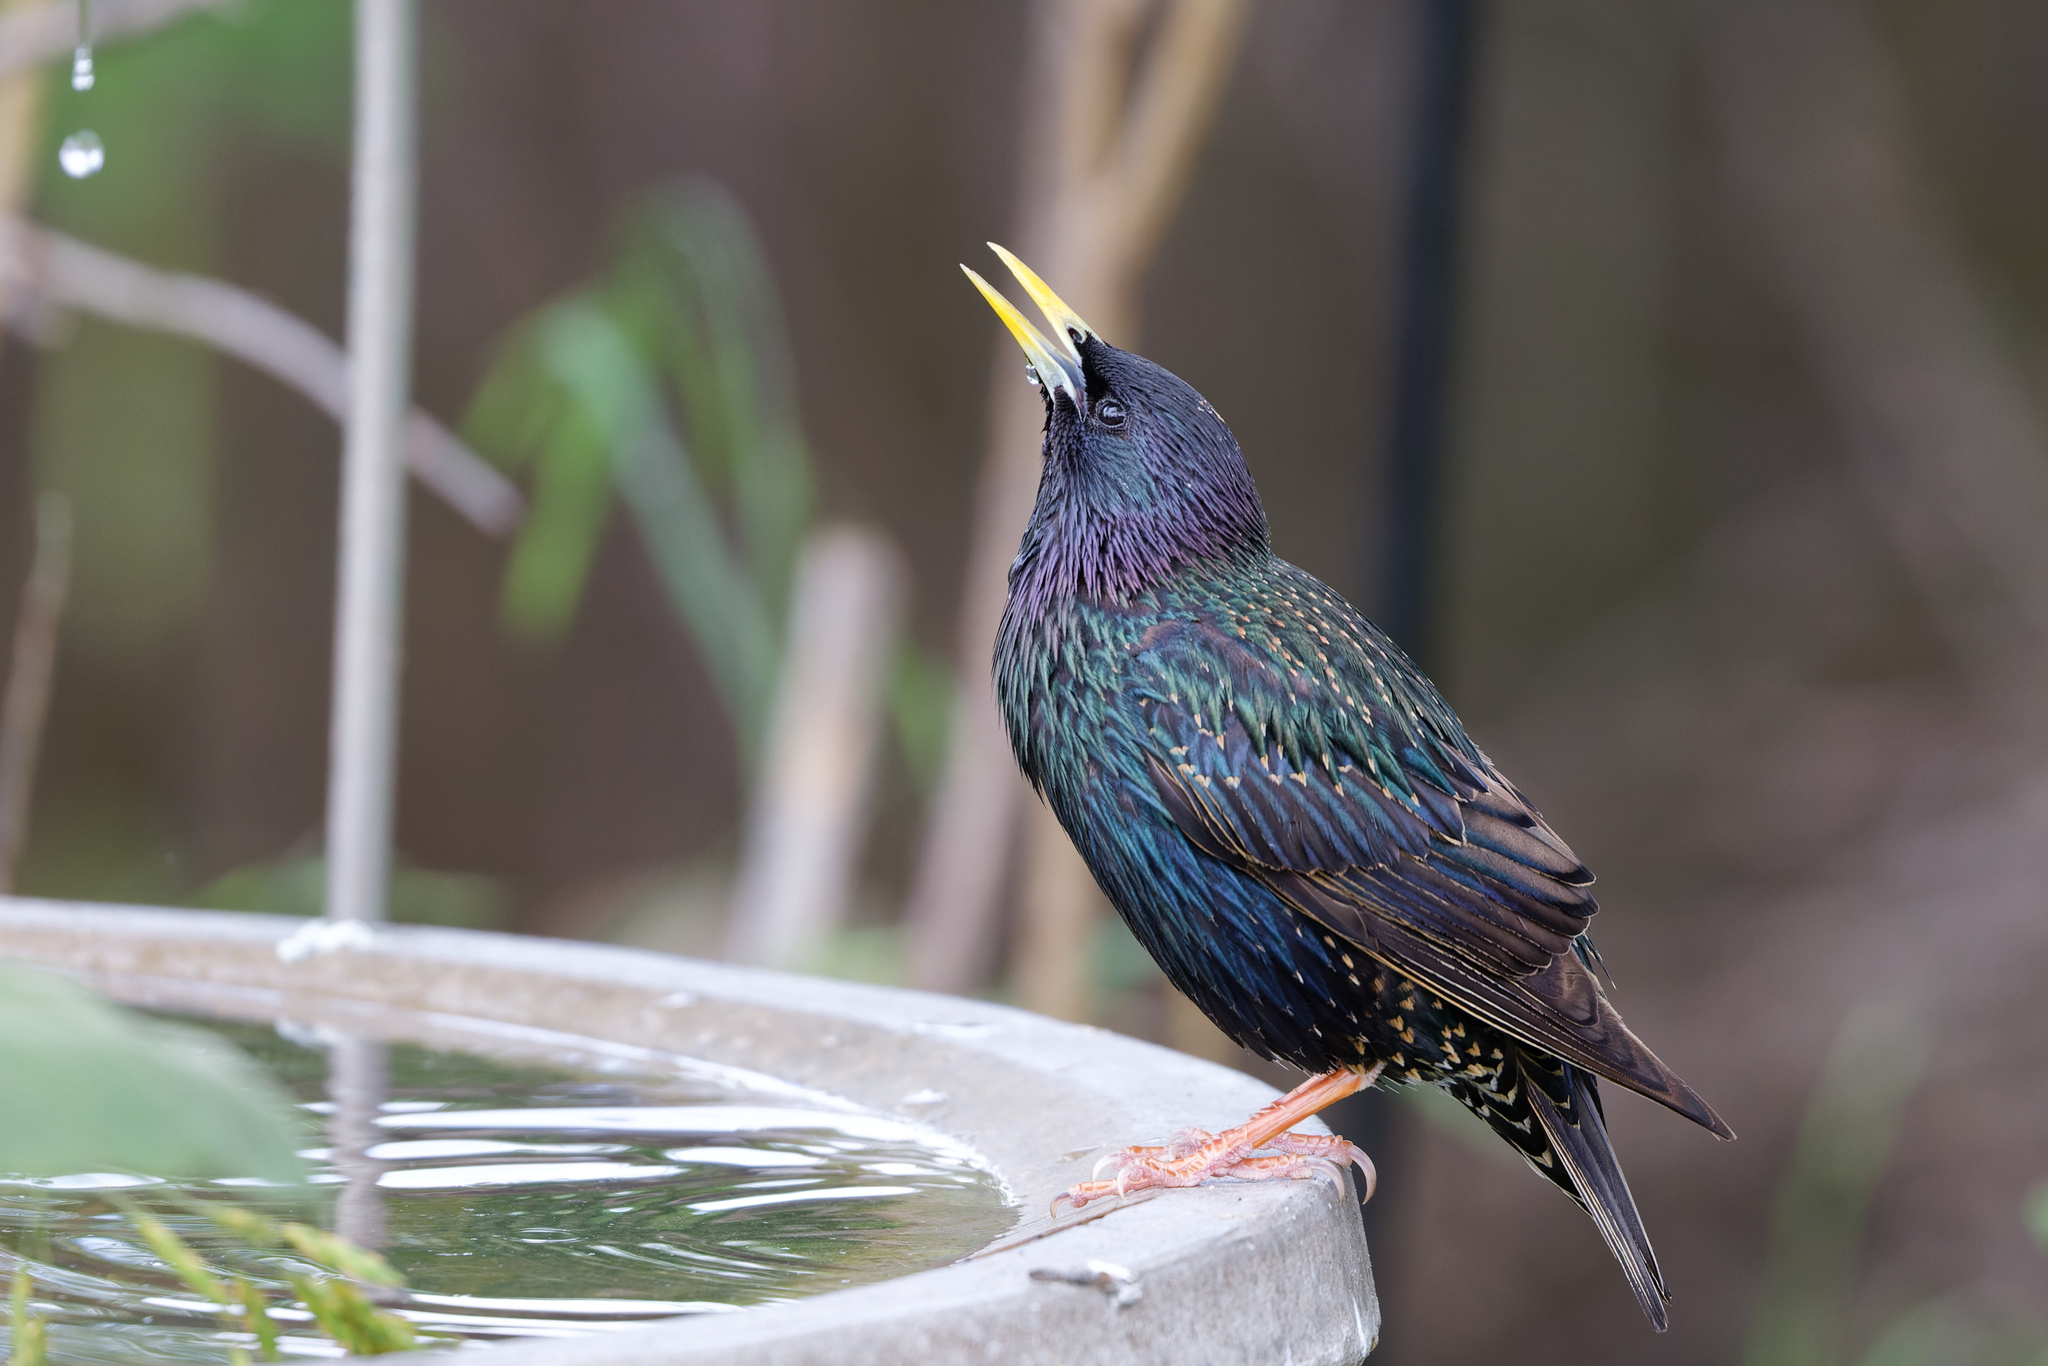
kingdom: Animalia
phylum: Chordata
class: Aves
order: Passeriformes
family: Sturnidae
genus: Sturnus
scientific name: Sturnus vulgaris
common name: Common starling
